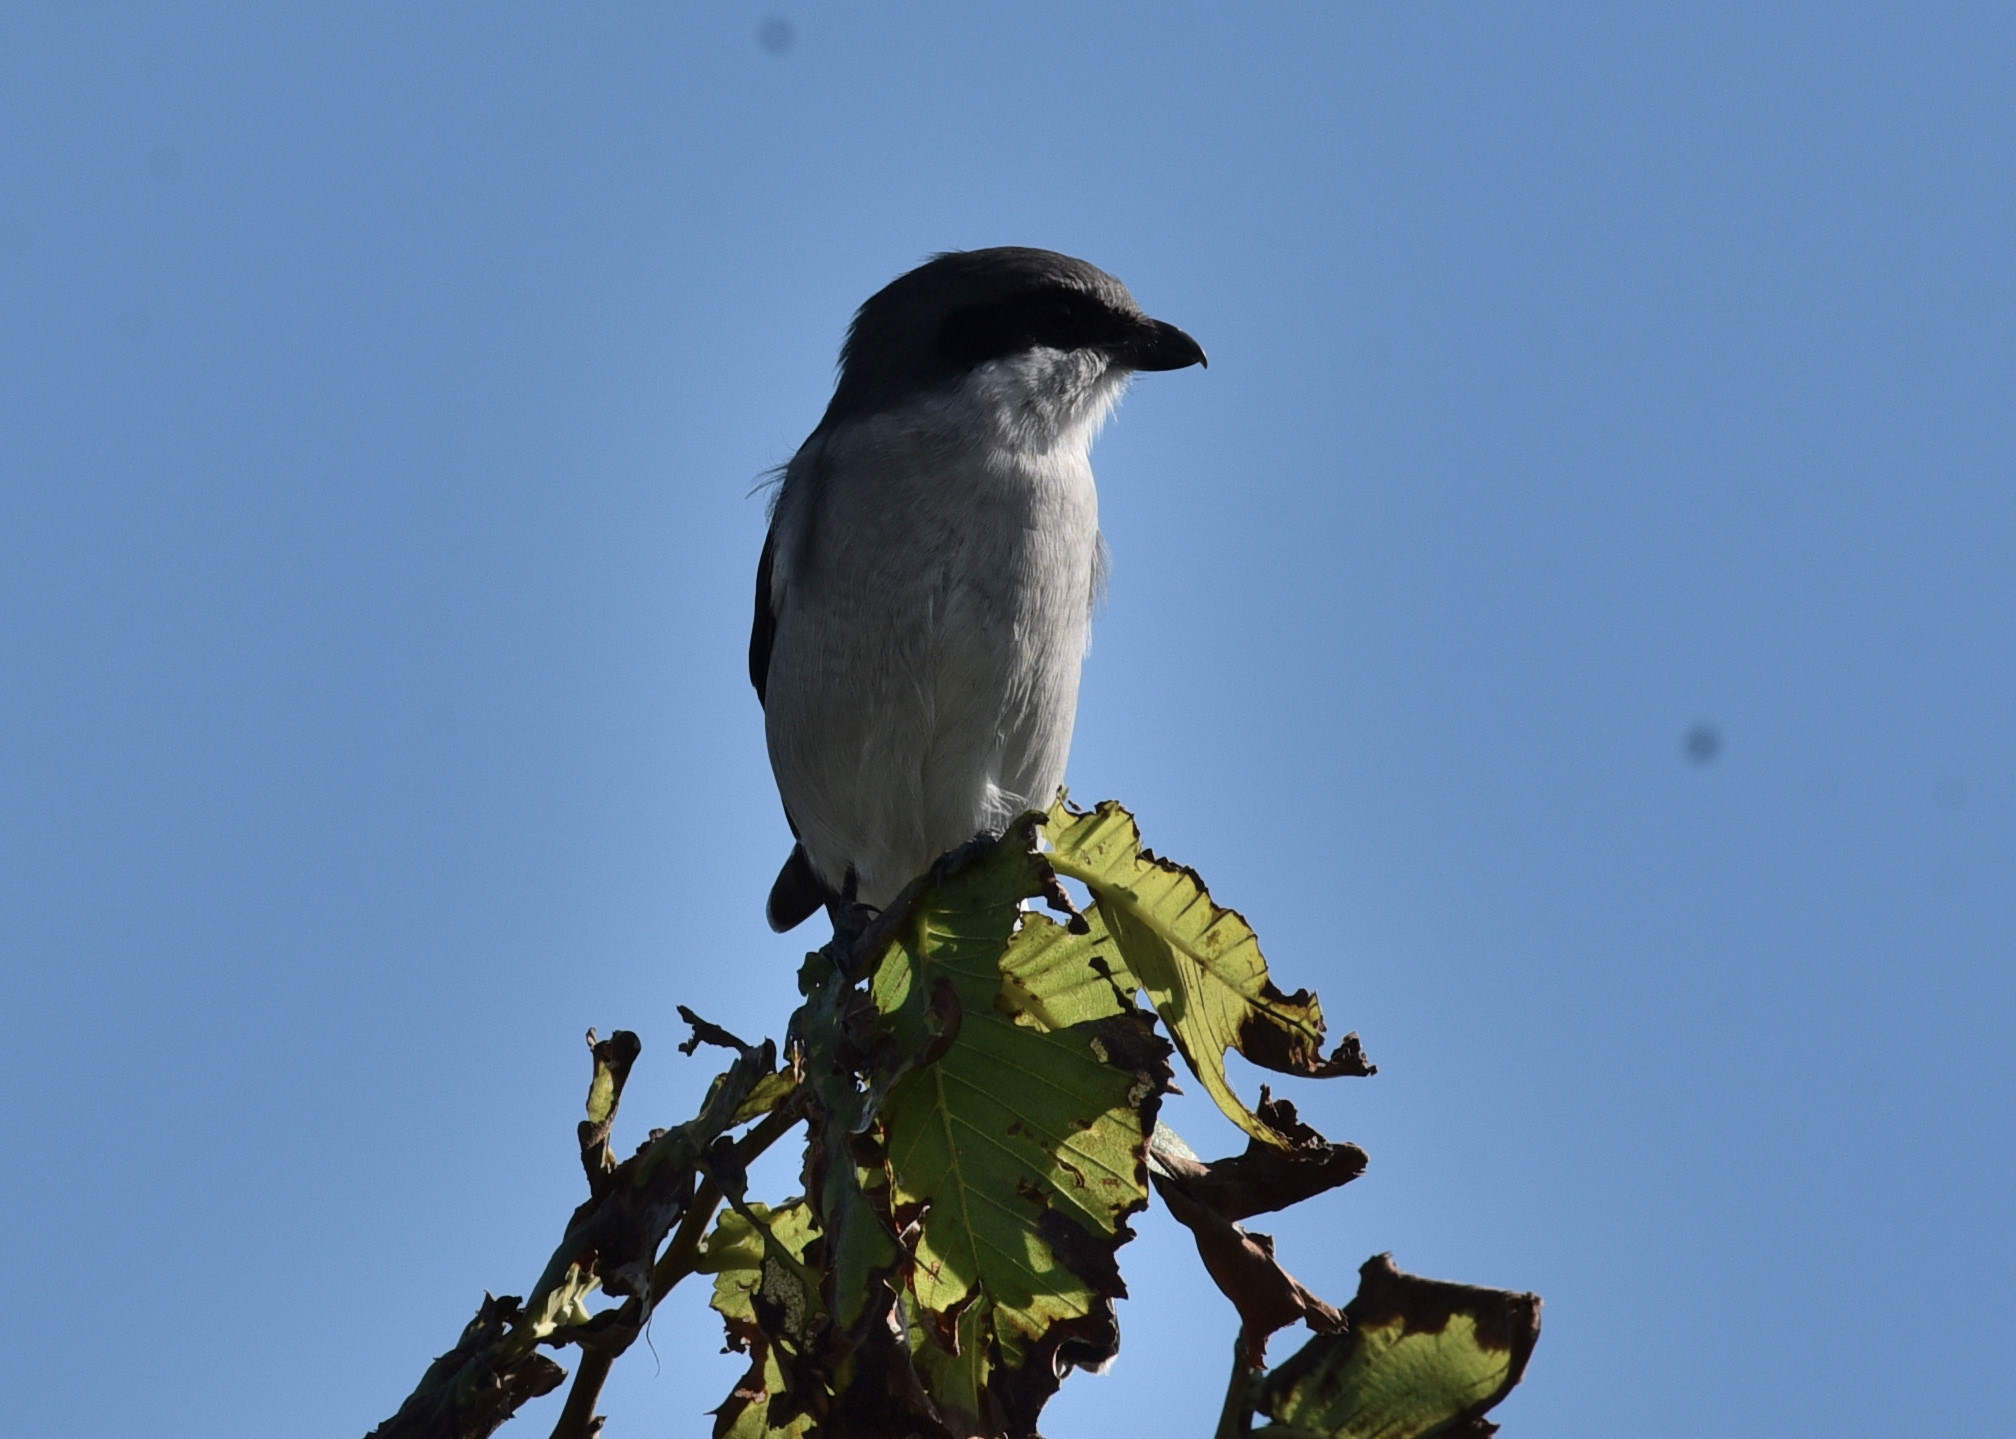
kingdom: Animalia
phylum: Chordata
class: Aves
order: Passeriformes
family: Laniidae
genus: Lanius
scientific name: Lanius ludovicianus
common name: Loggerhead shrike
